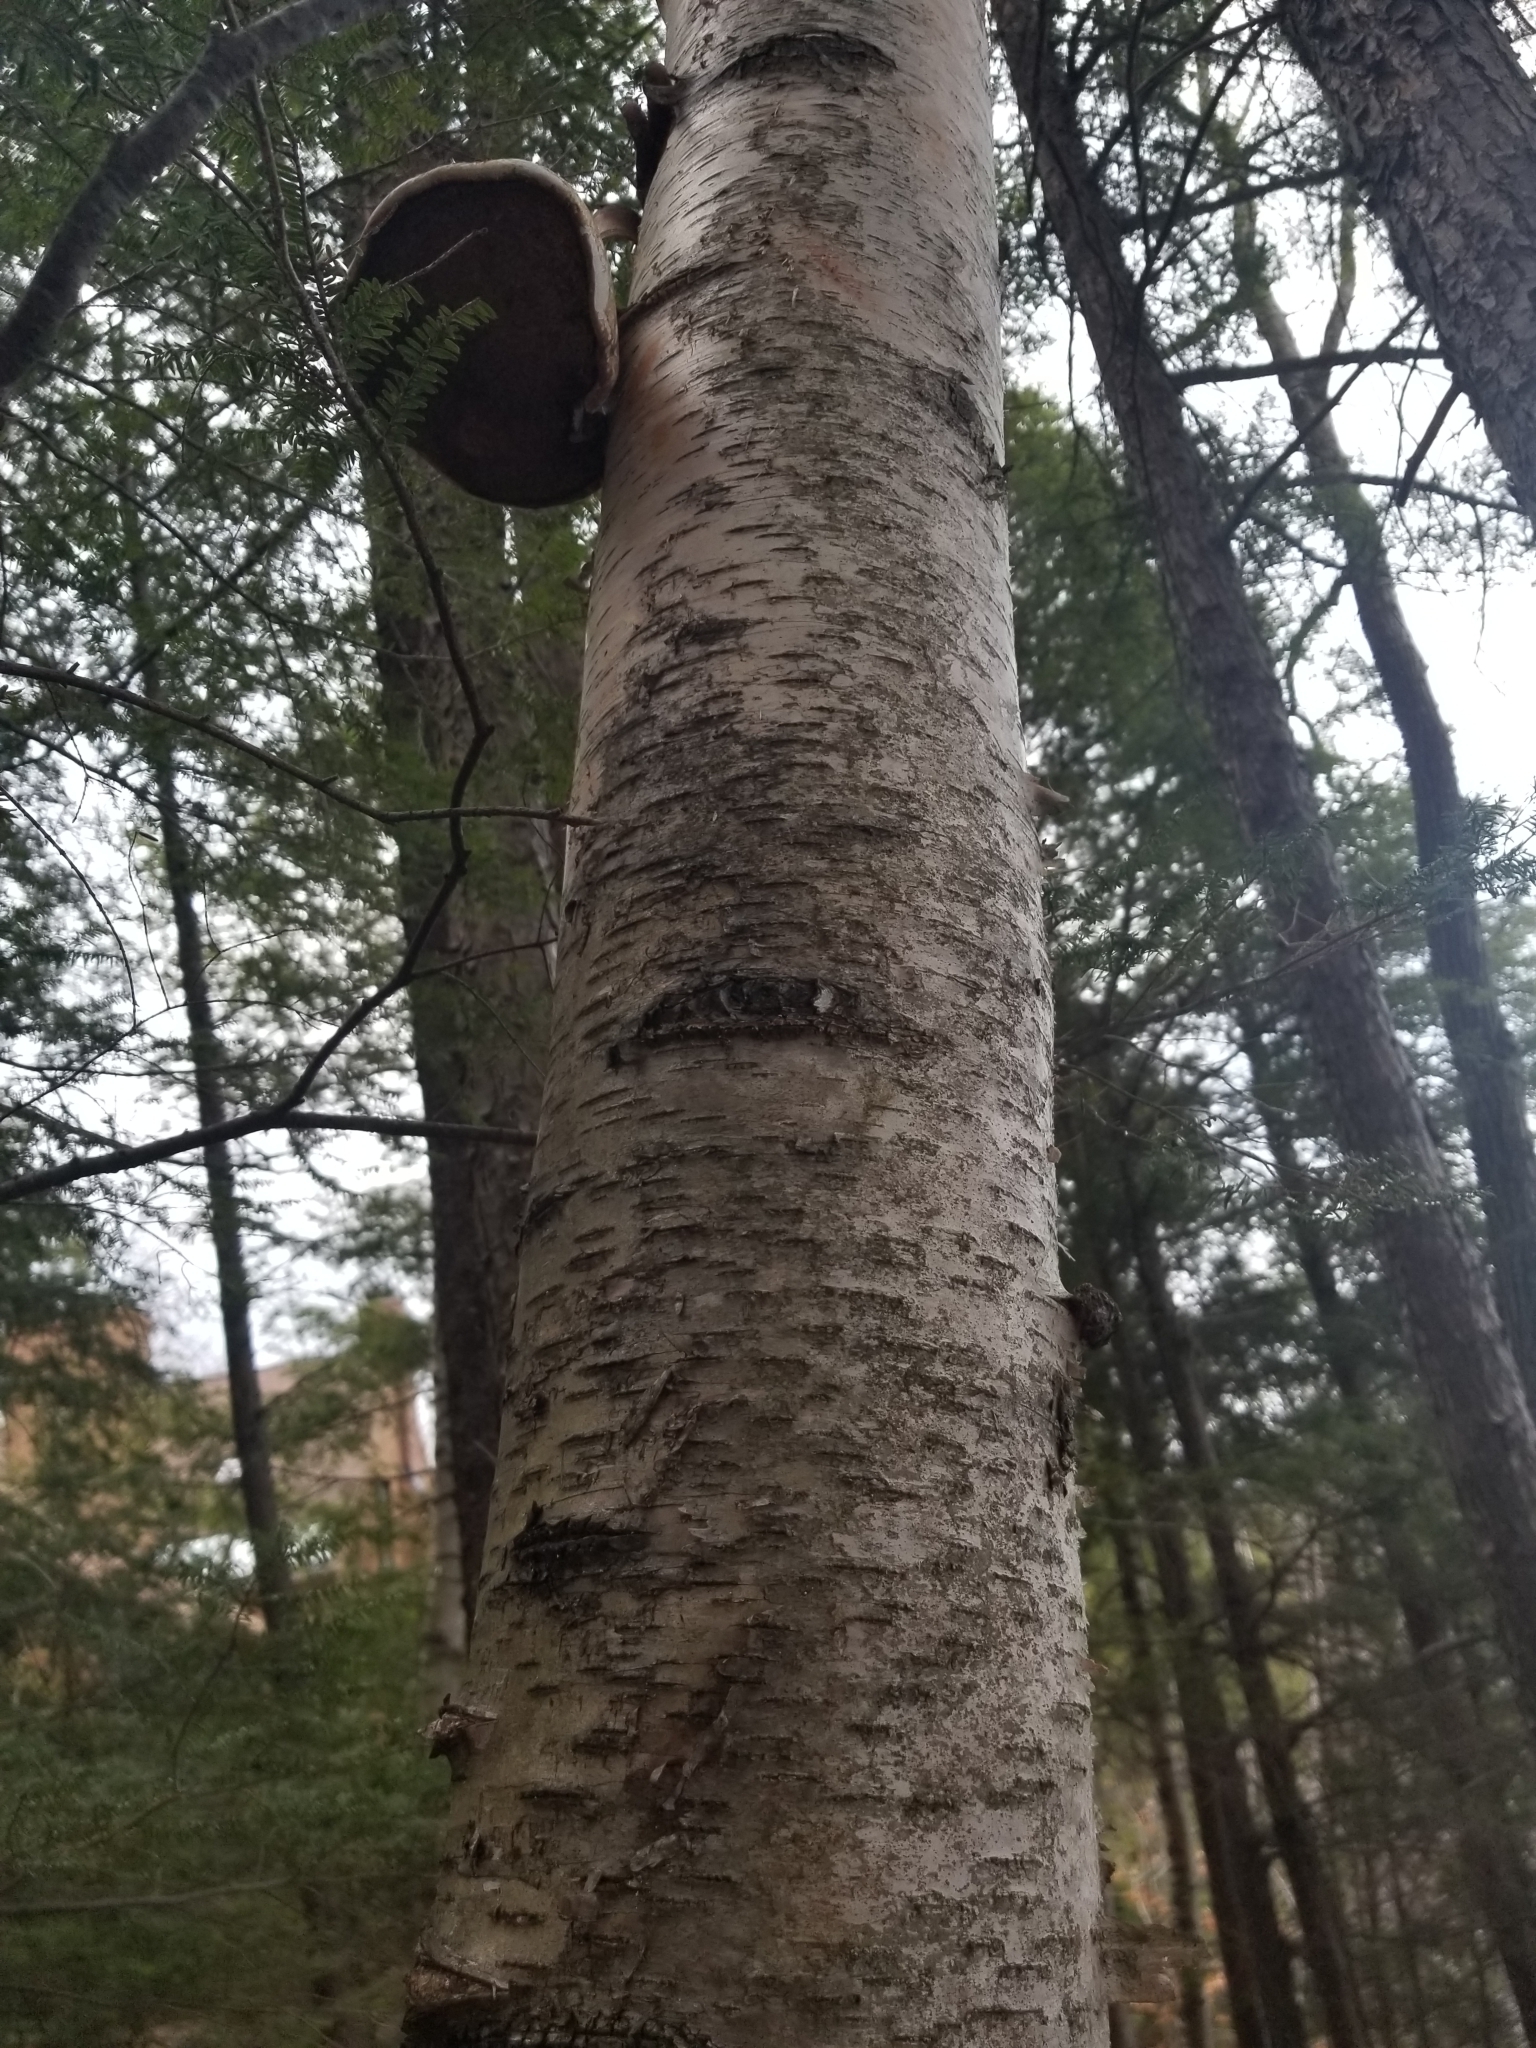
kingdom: Fungi
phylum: Basidiomycota
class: Agaricomycetes
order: Polyporales
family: Fomitopsidaceae
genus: Fomitopsis
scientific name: Fomitopsis betulina
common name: Birch polypore
